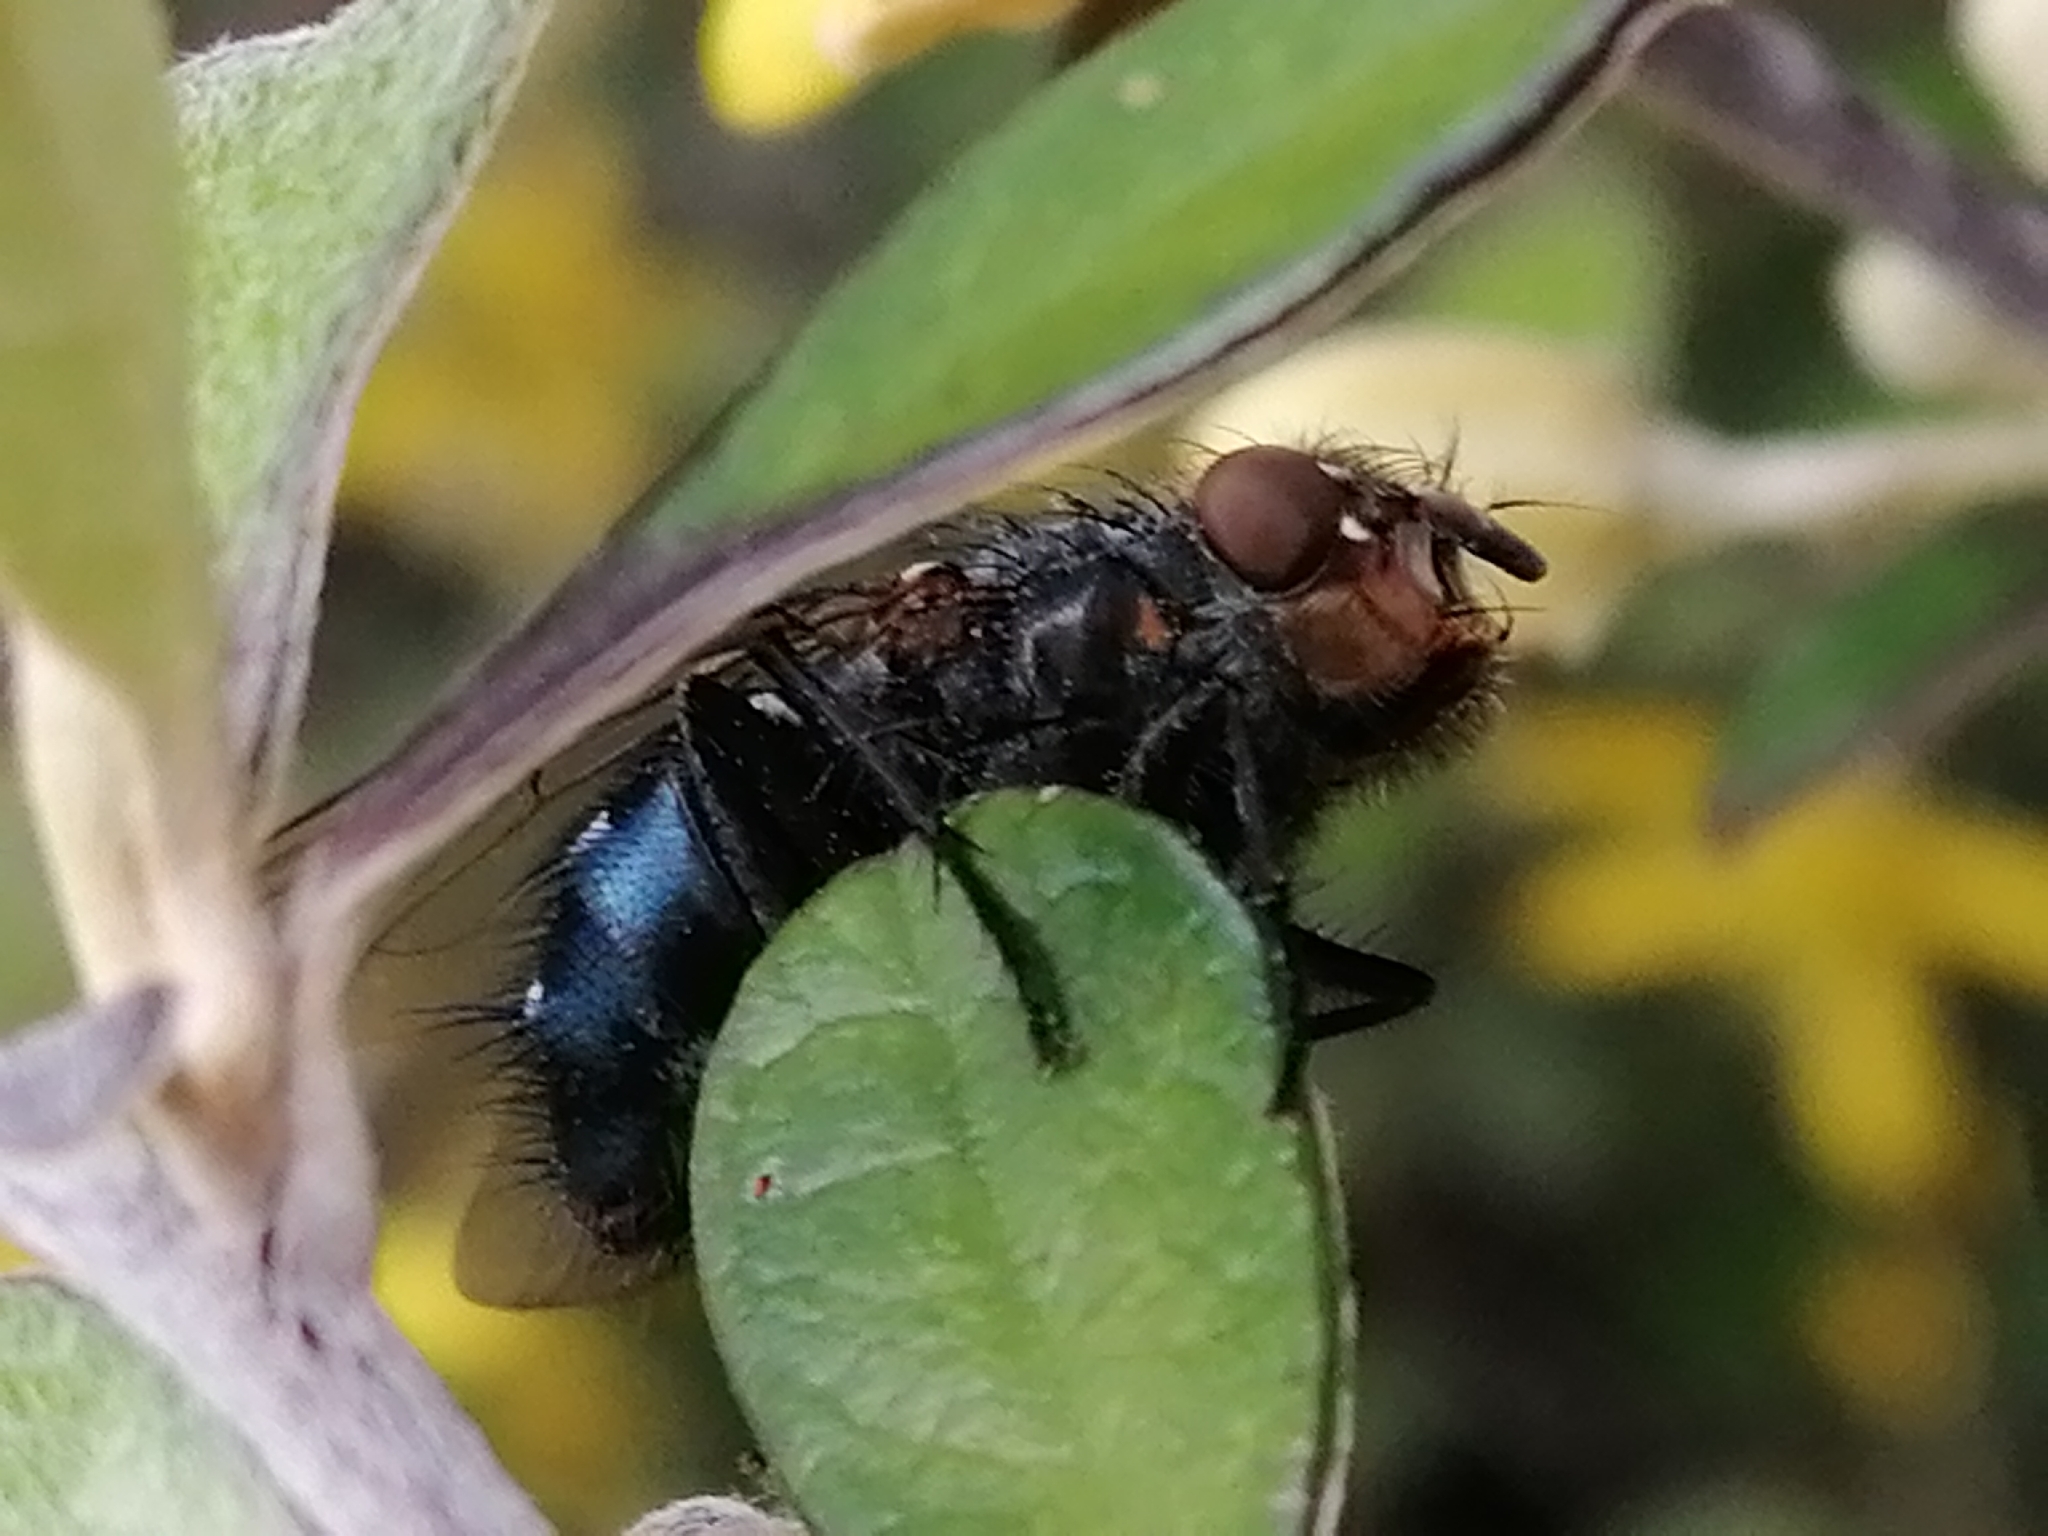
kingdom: Animalia
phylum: Arthropoda
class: Insecta
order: Diptera
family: Calliphoridae
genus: Calliphora
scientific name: Calliphora vicina
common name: Common blow flie
